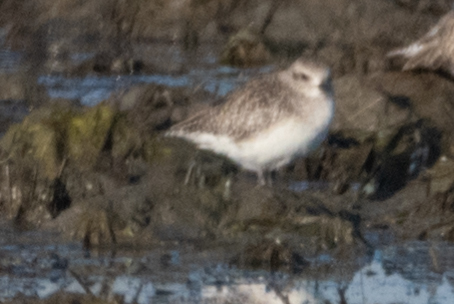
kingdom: Animalia
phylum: Chordata
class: Aves
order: Charadriiformes
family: Charadriidae
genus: Pluvialis
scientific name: Pluvialis squatarola
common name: Grey plover
